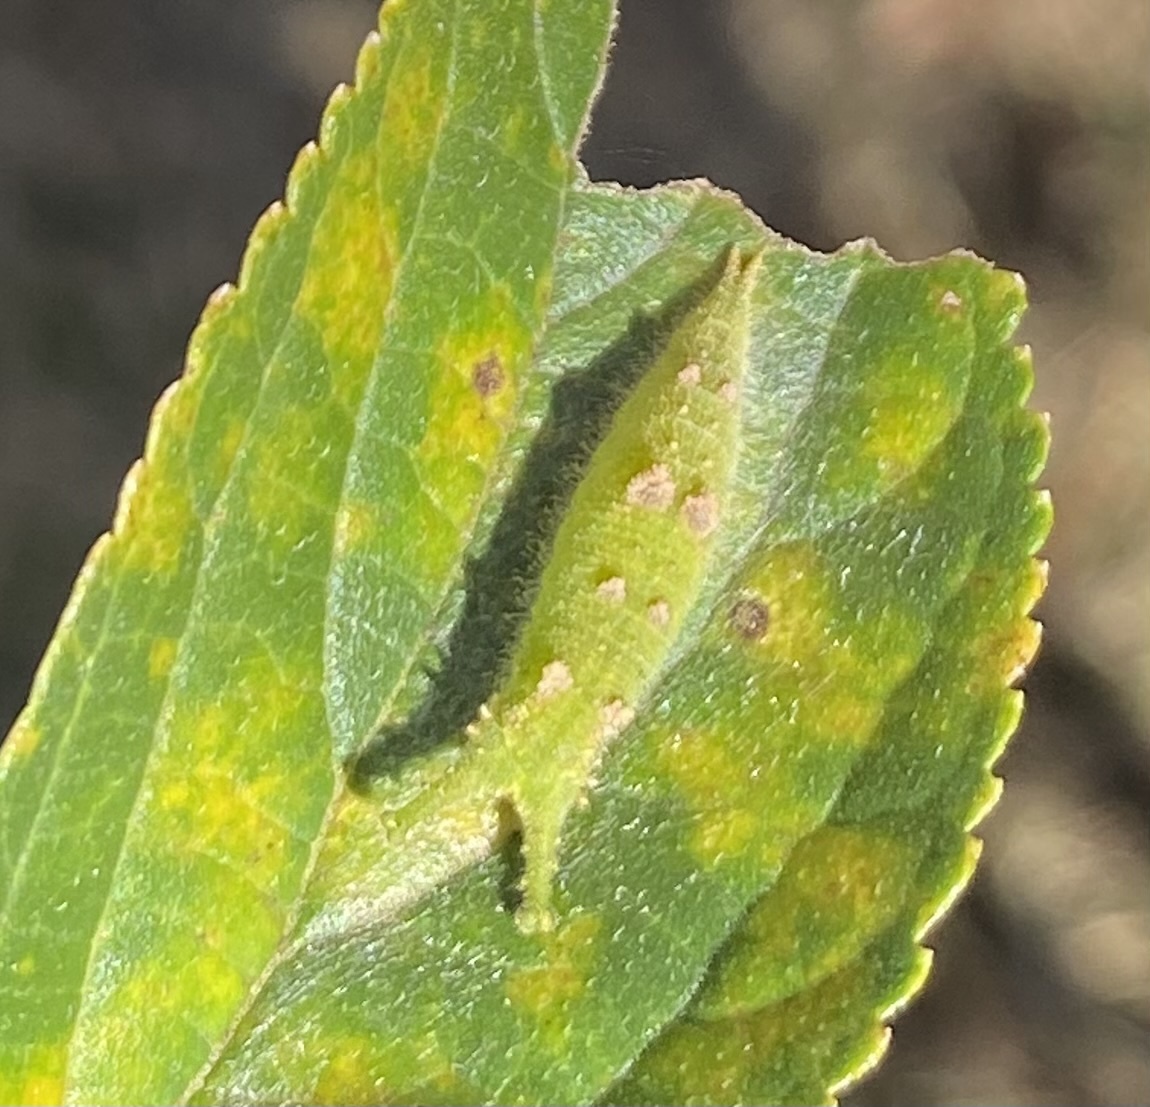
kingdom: Animalia
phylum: Arthropoda
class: Insecta
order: Lepidoptera
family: Nymphalidae
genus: Hestina
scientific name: Hestina assimilis
